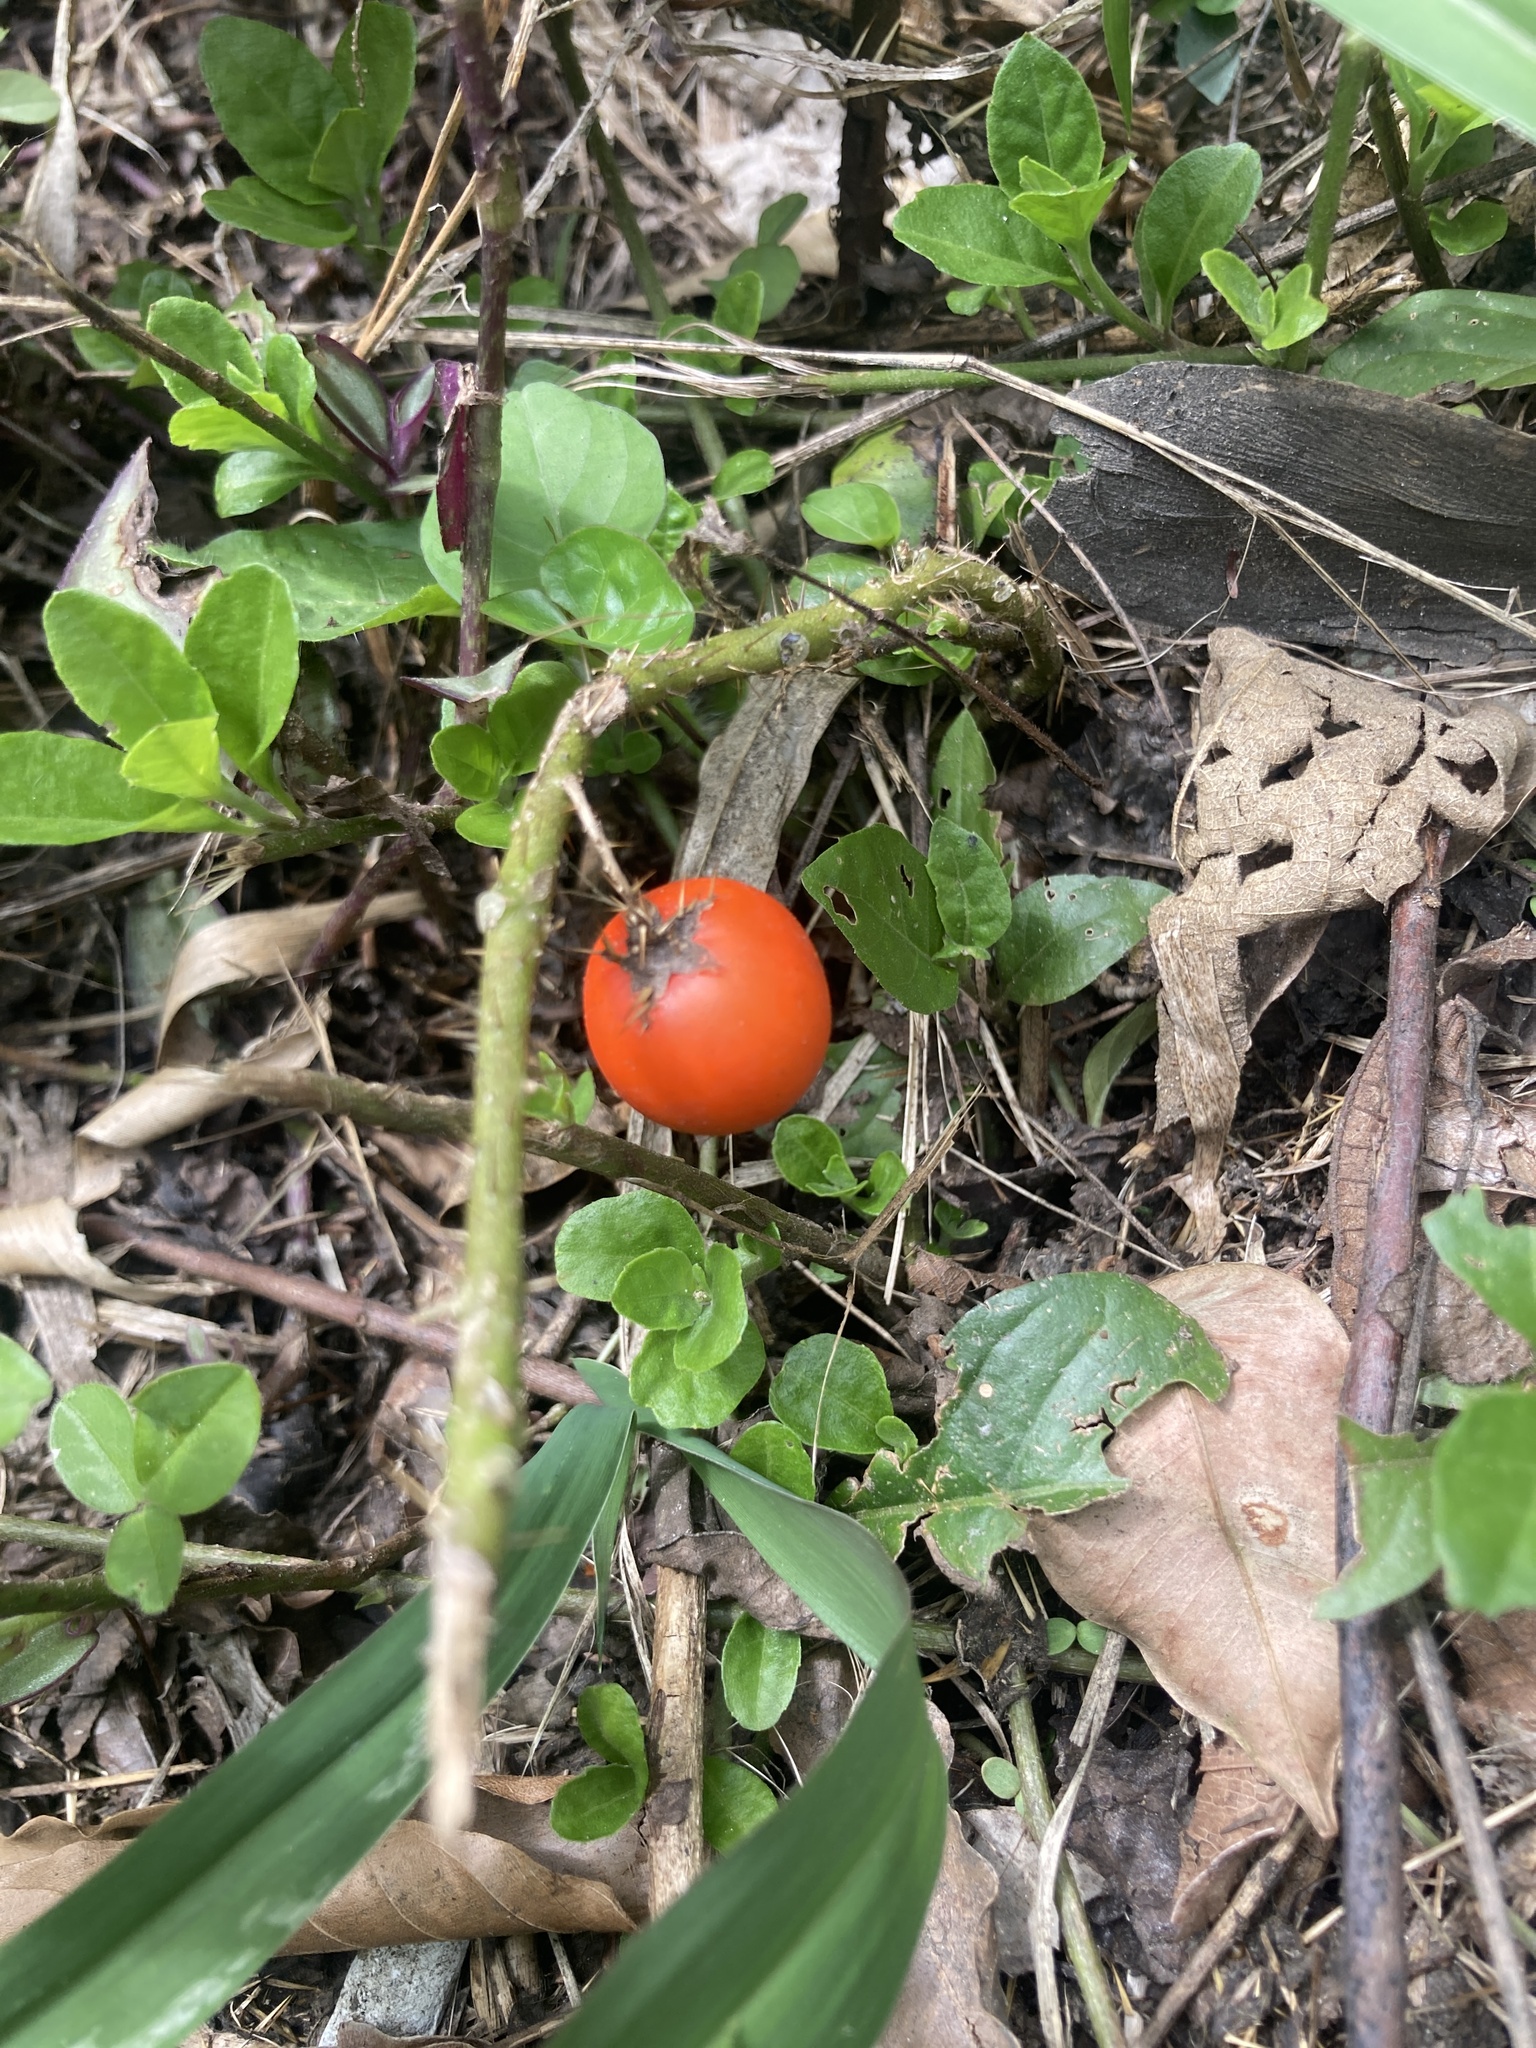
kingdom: Plantae
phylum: Tracheophyta
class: Magnoliopsida
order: Solanales
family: Solanaceae
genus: Solanum
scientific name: Solanum capsicoides
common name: Cockroach berry
